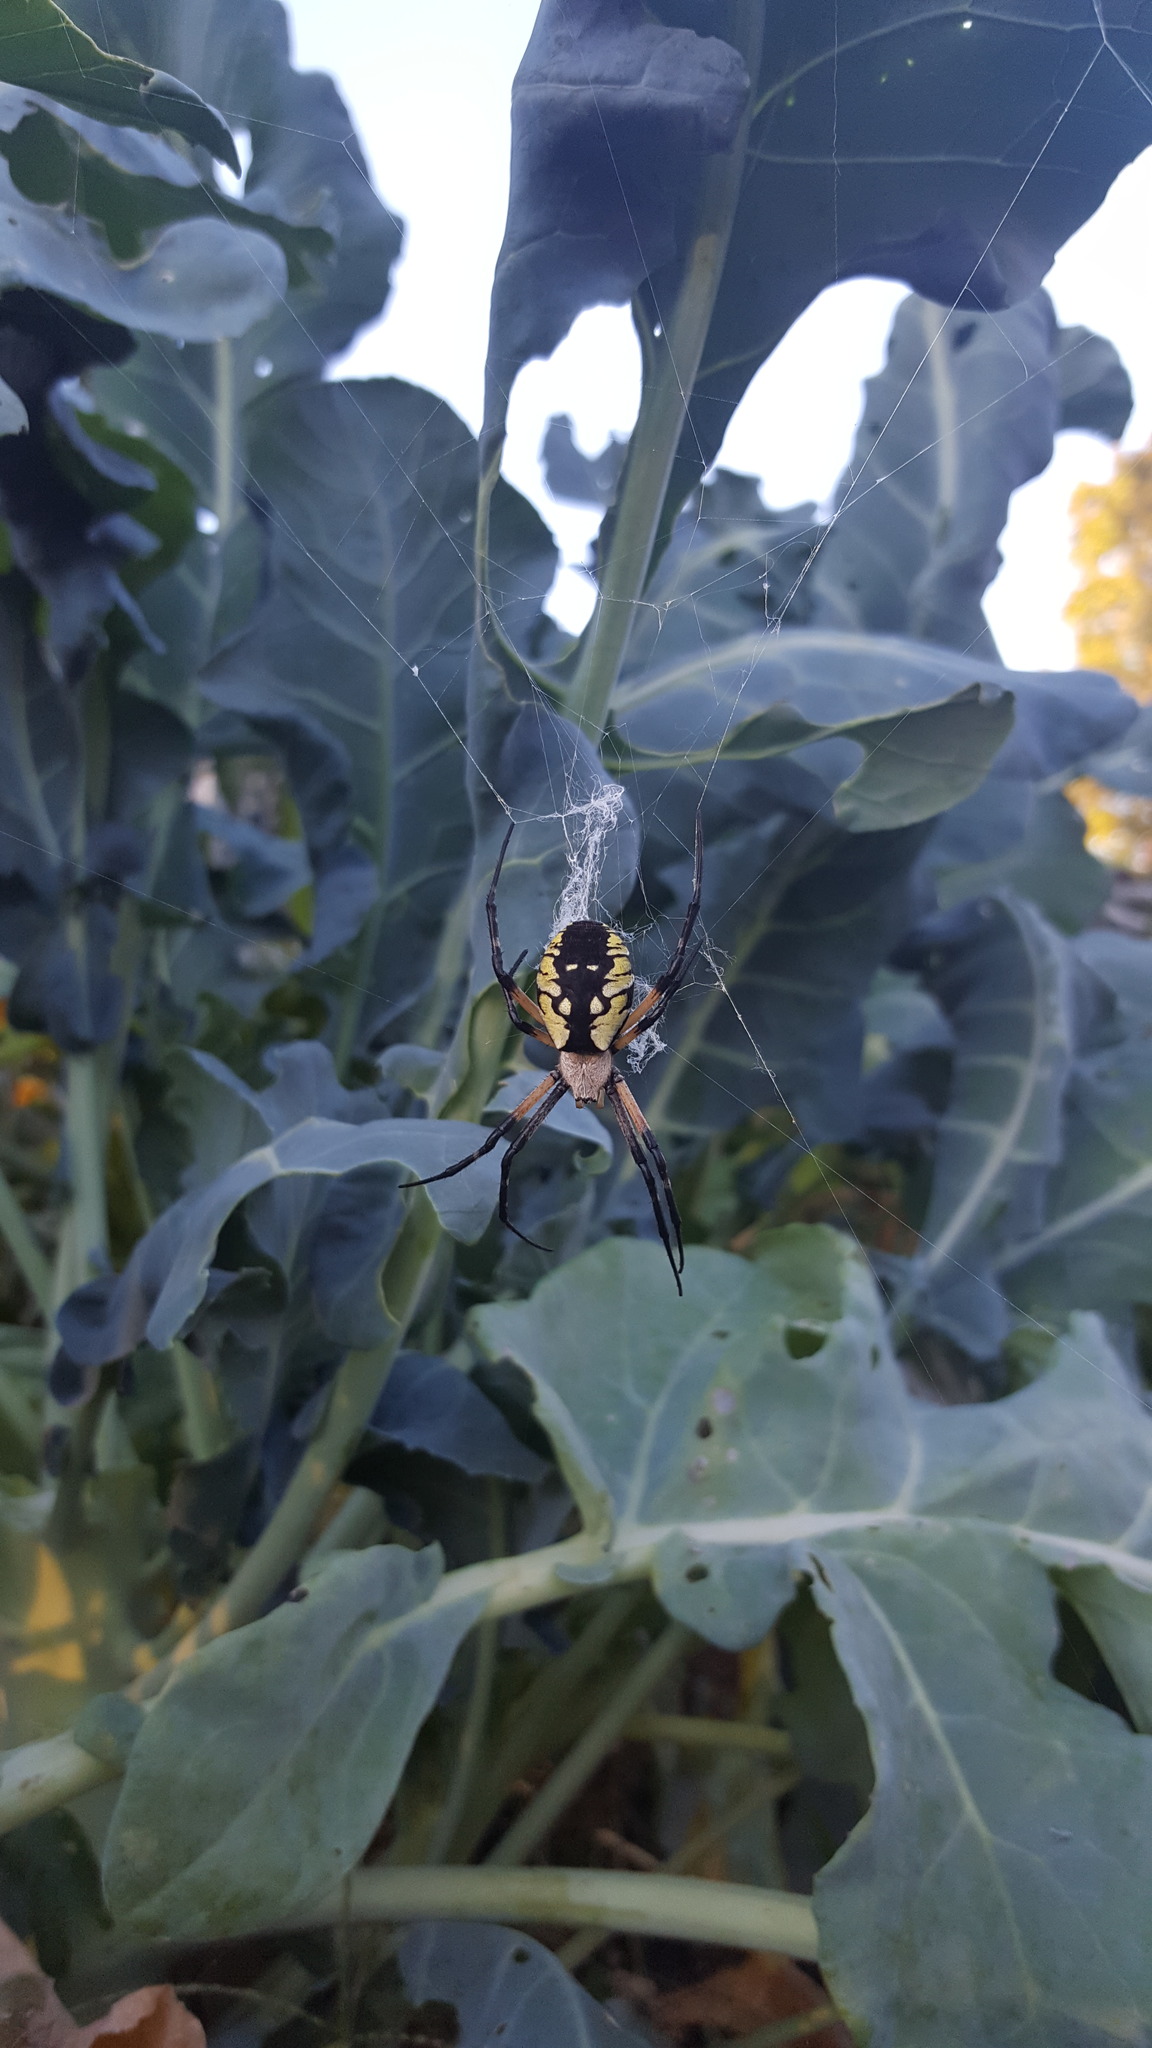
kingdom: Animalia
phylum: Arthropoda
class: Arachnida
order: Araneae
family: Araneidae
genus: Argiope
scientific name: Argiope aurantia
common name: Orb weavers
